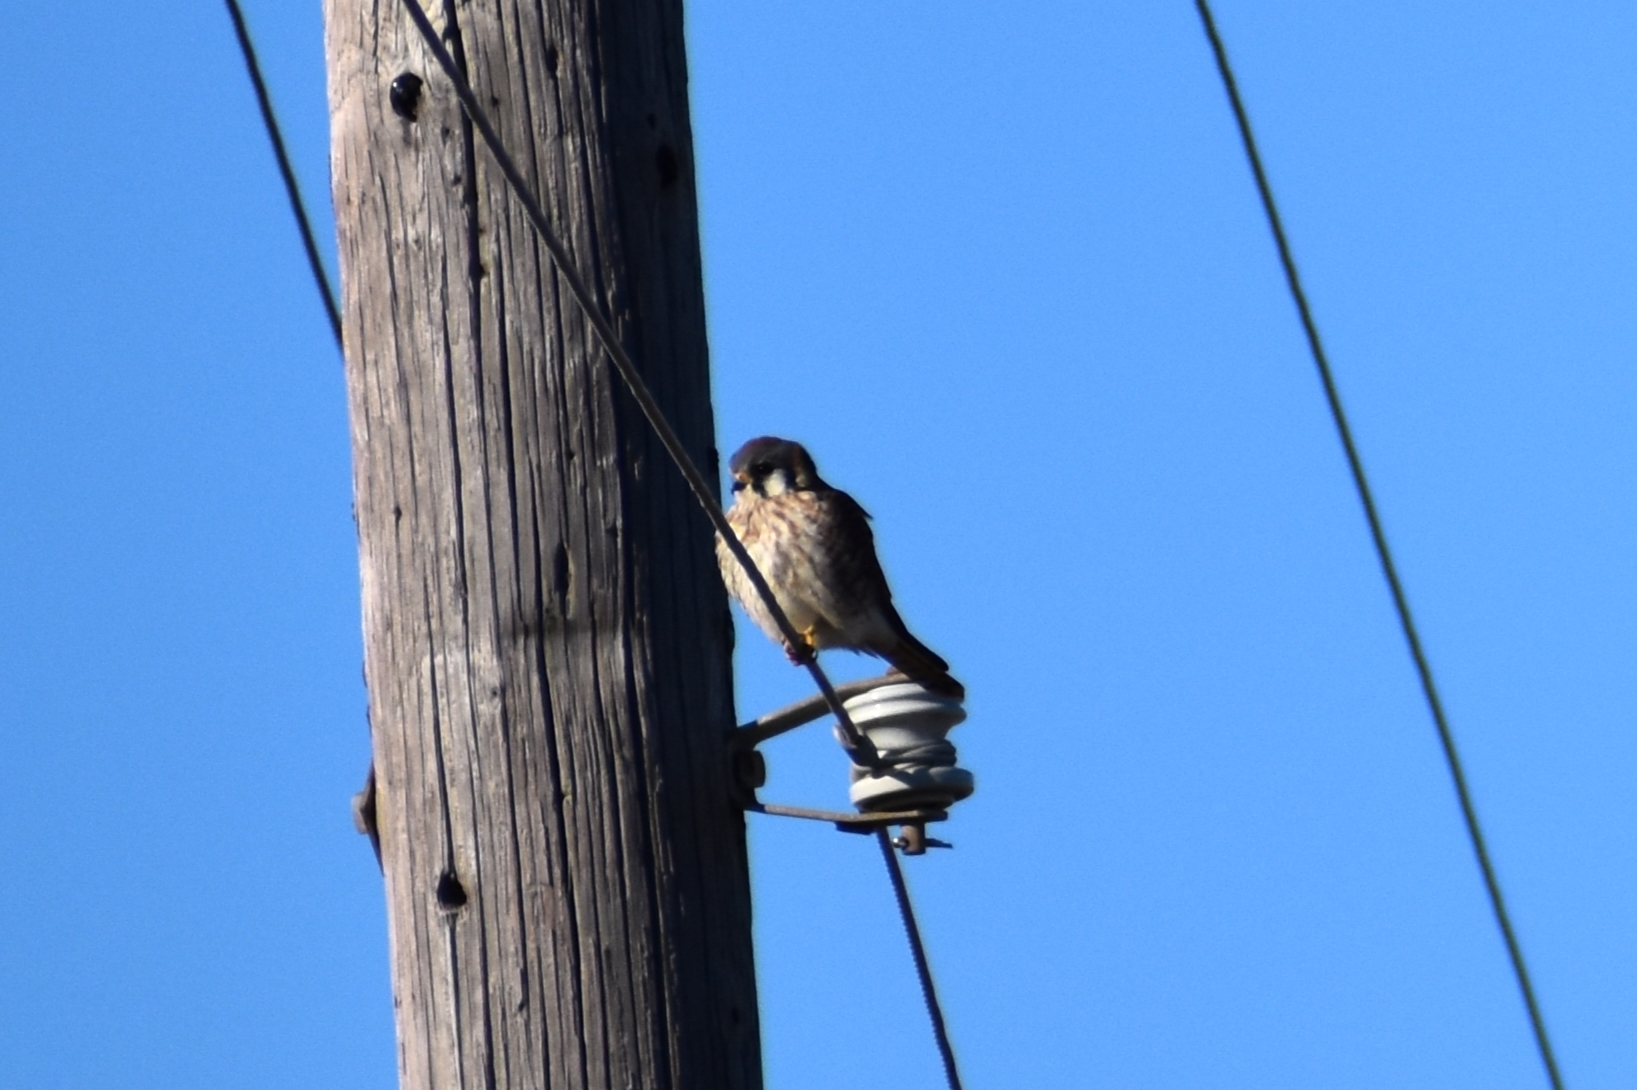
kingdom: Animalia
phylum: Chordata
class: Aves
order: Falconiformes
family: Falconidae
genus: Falco
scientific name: Falco sparverius
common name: American kestrel
